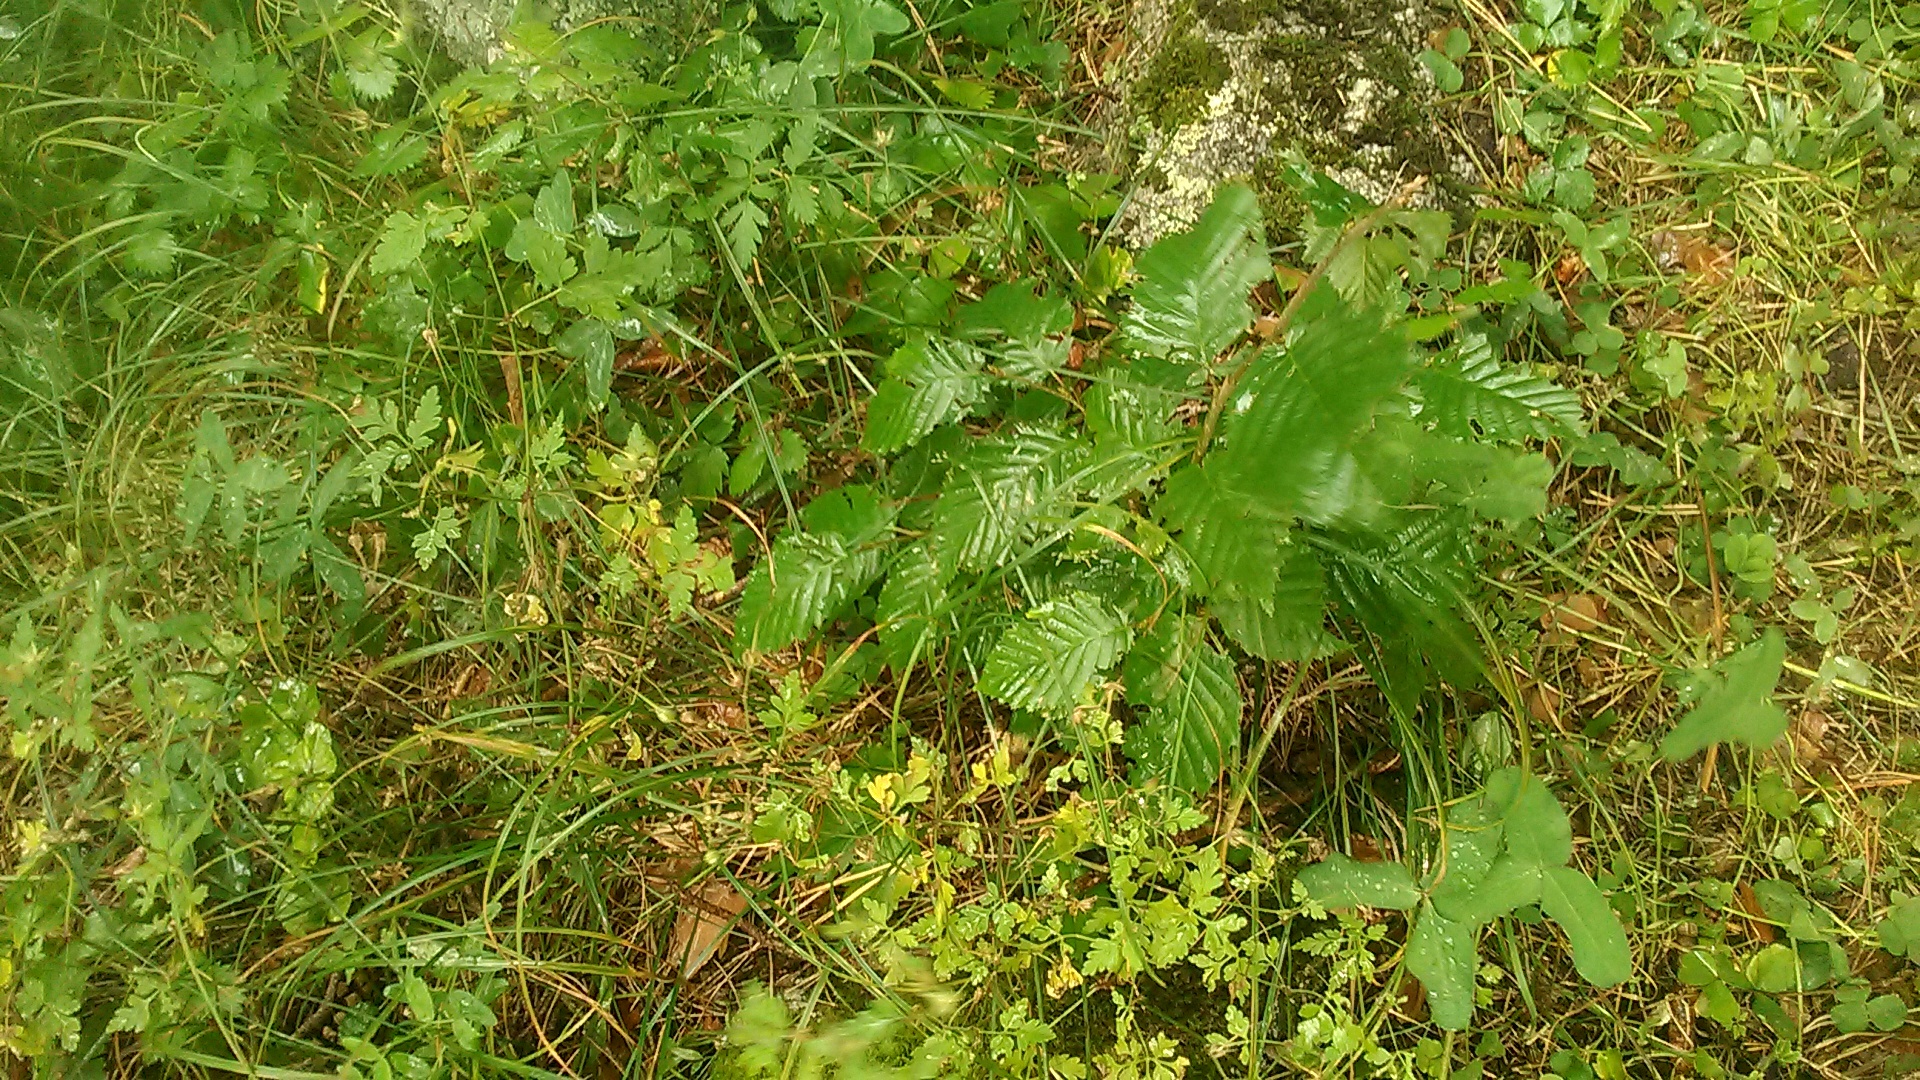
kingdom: Plantae
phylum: Tracheophyta
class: Magnoliopsida
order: Fagales
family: Betulaceae
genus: Carpinus
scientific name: Carpinus betulus
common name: Hornbeam
